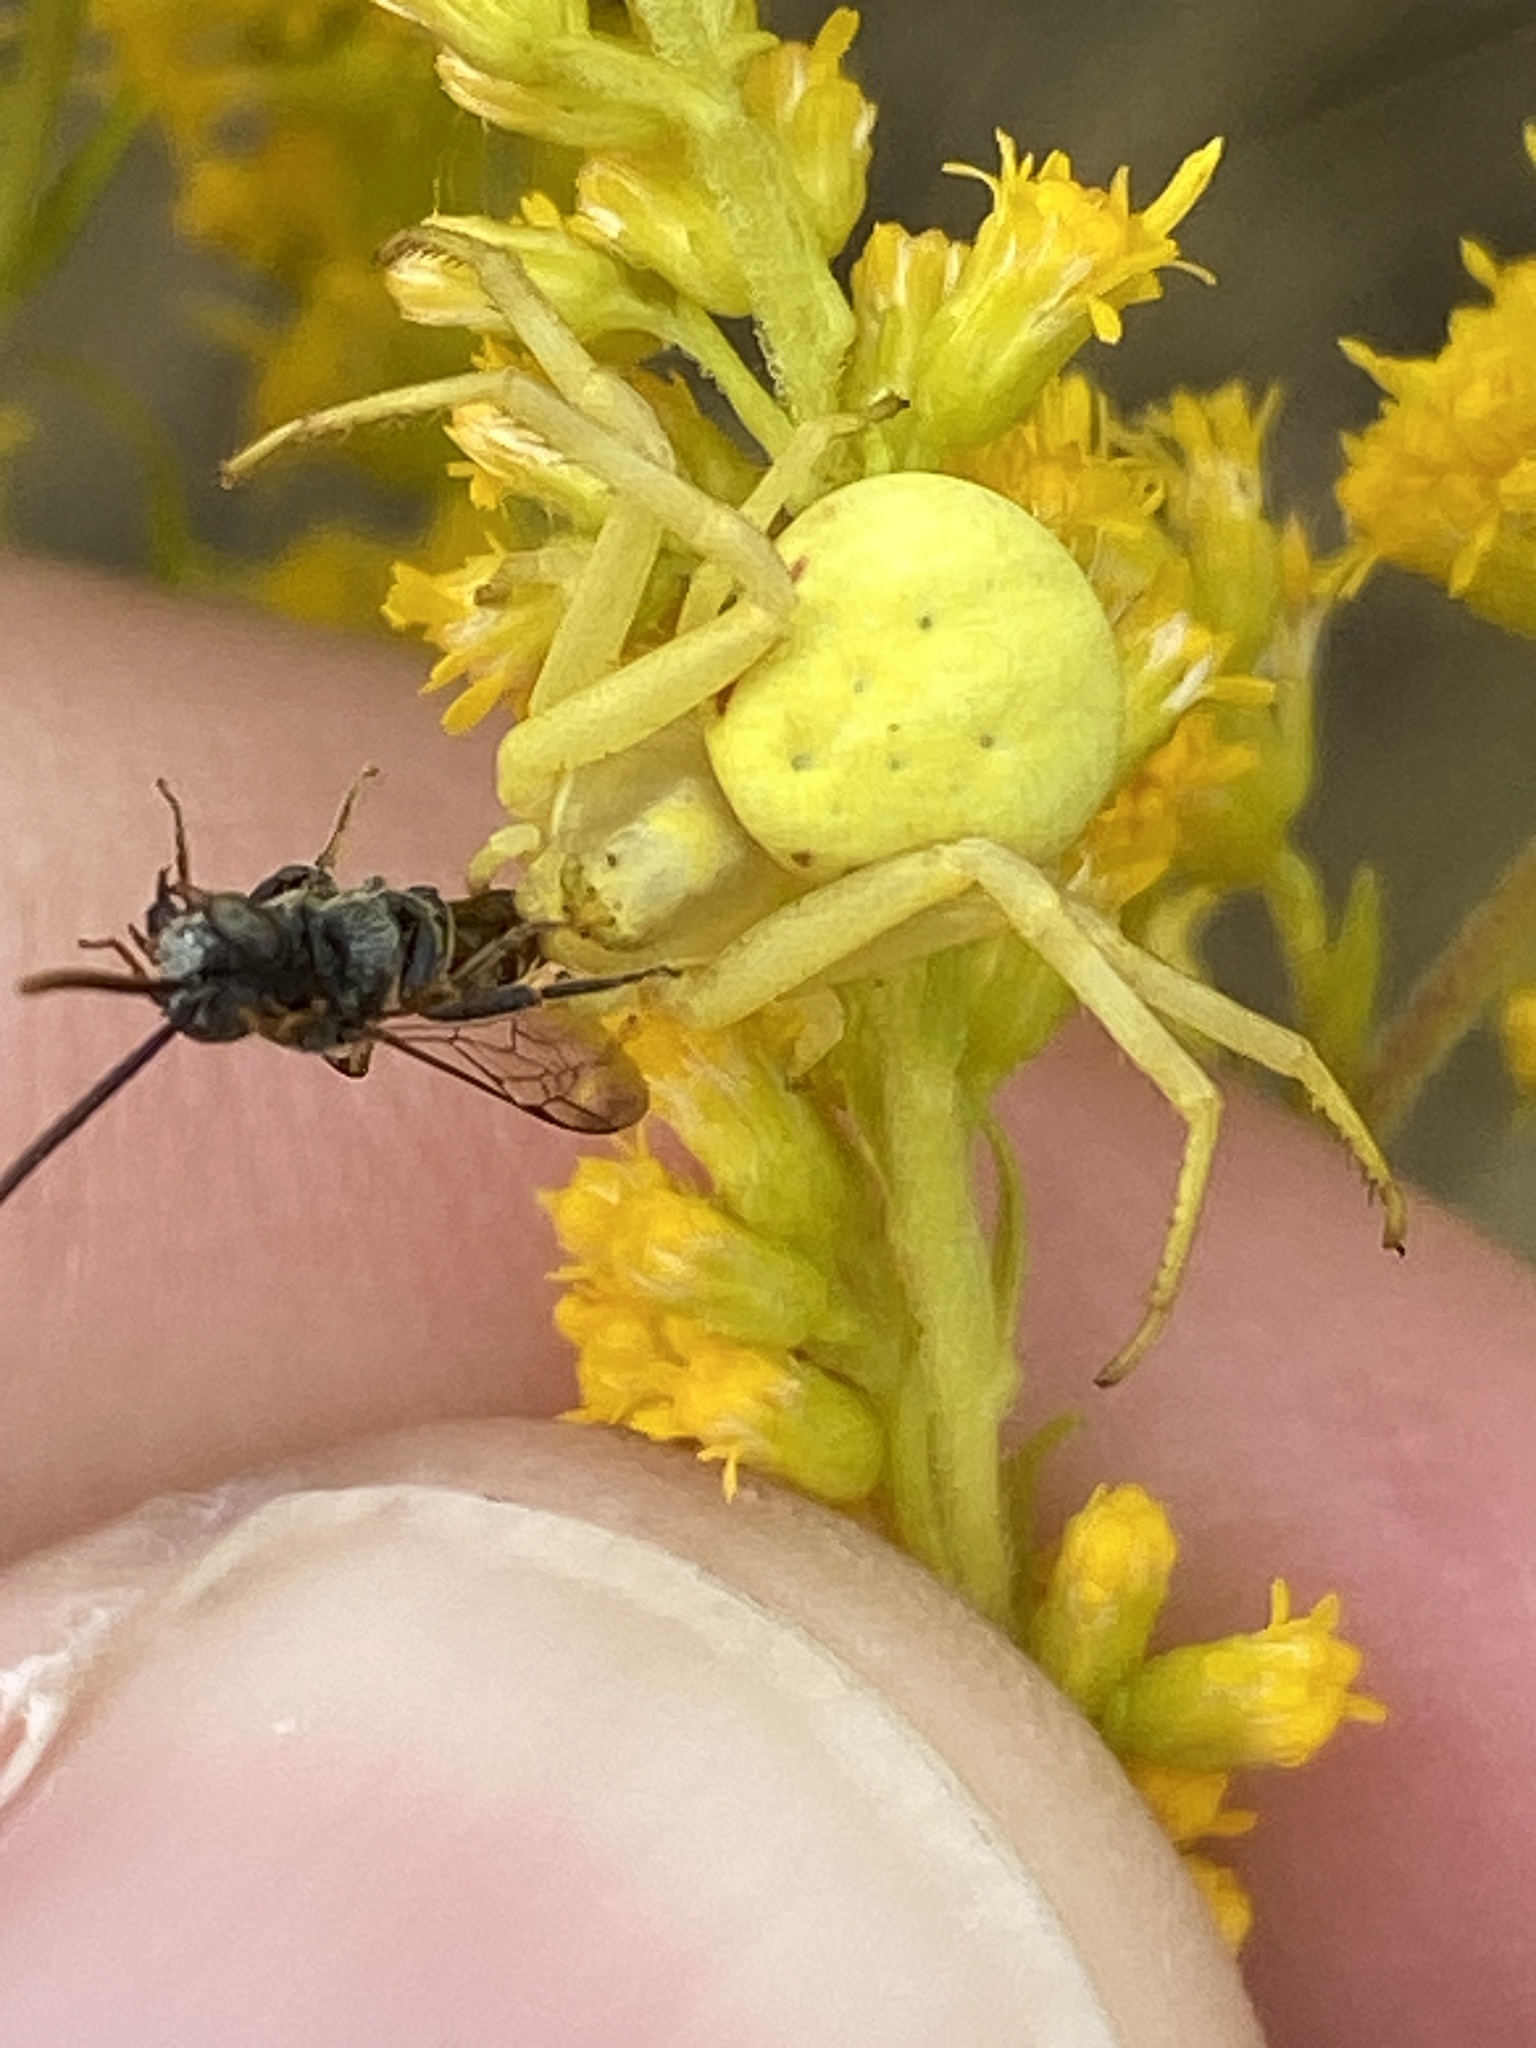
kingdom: Animalia
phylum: Arthropoda
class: Arachnida
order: Araneae
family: Thomisidae
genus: Misumena
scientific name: Misumena vatia
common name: Goldenrod crab spider
